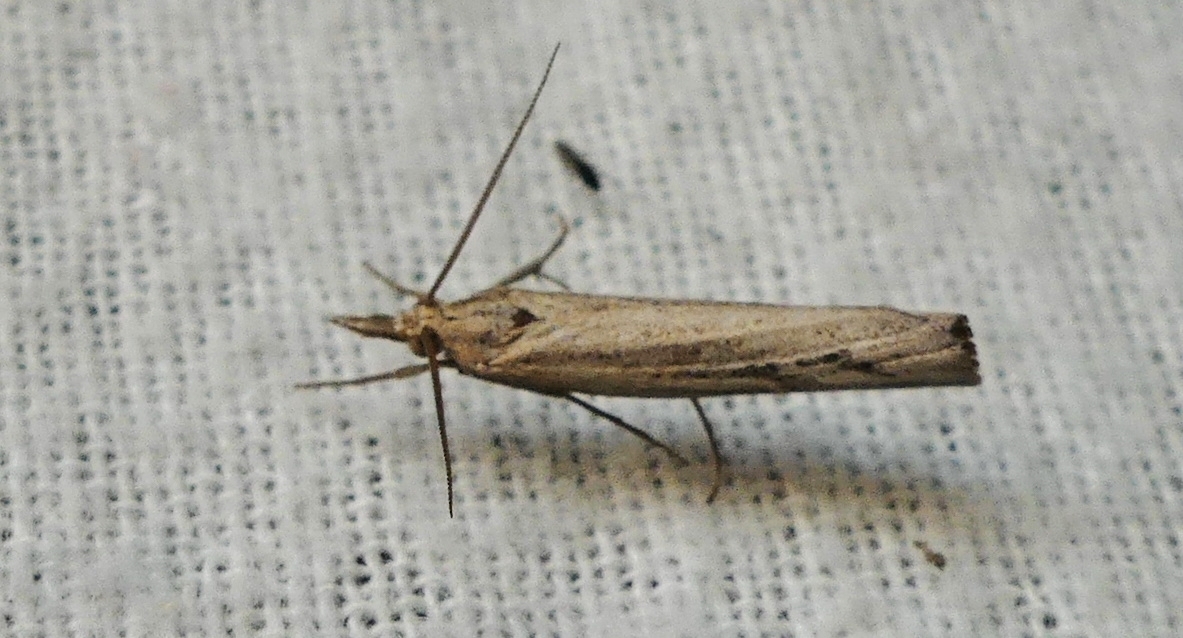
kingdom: Animalia
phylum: Arthropoda
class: Insecta
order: Lepidoptera
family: Crambidae
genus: Pediasia
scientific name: Pediasia trisecta
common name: Sod webworm moth
